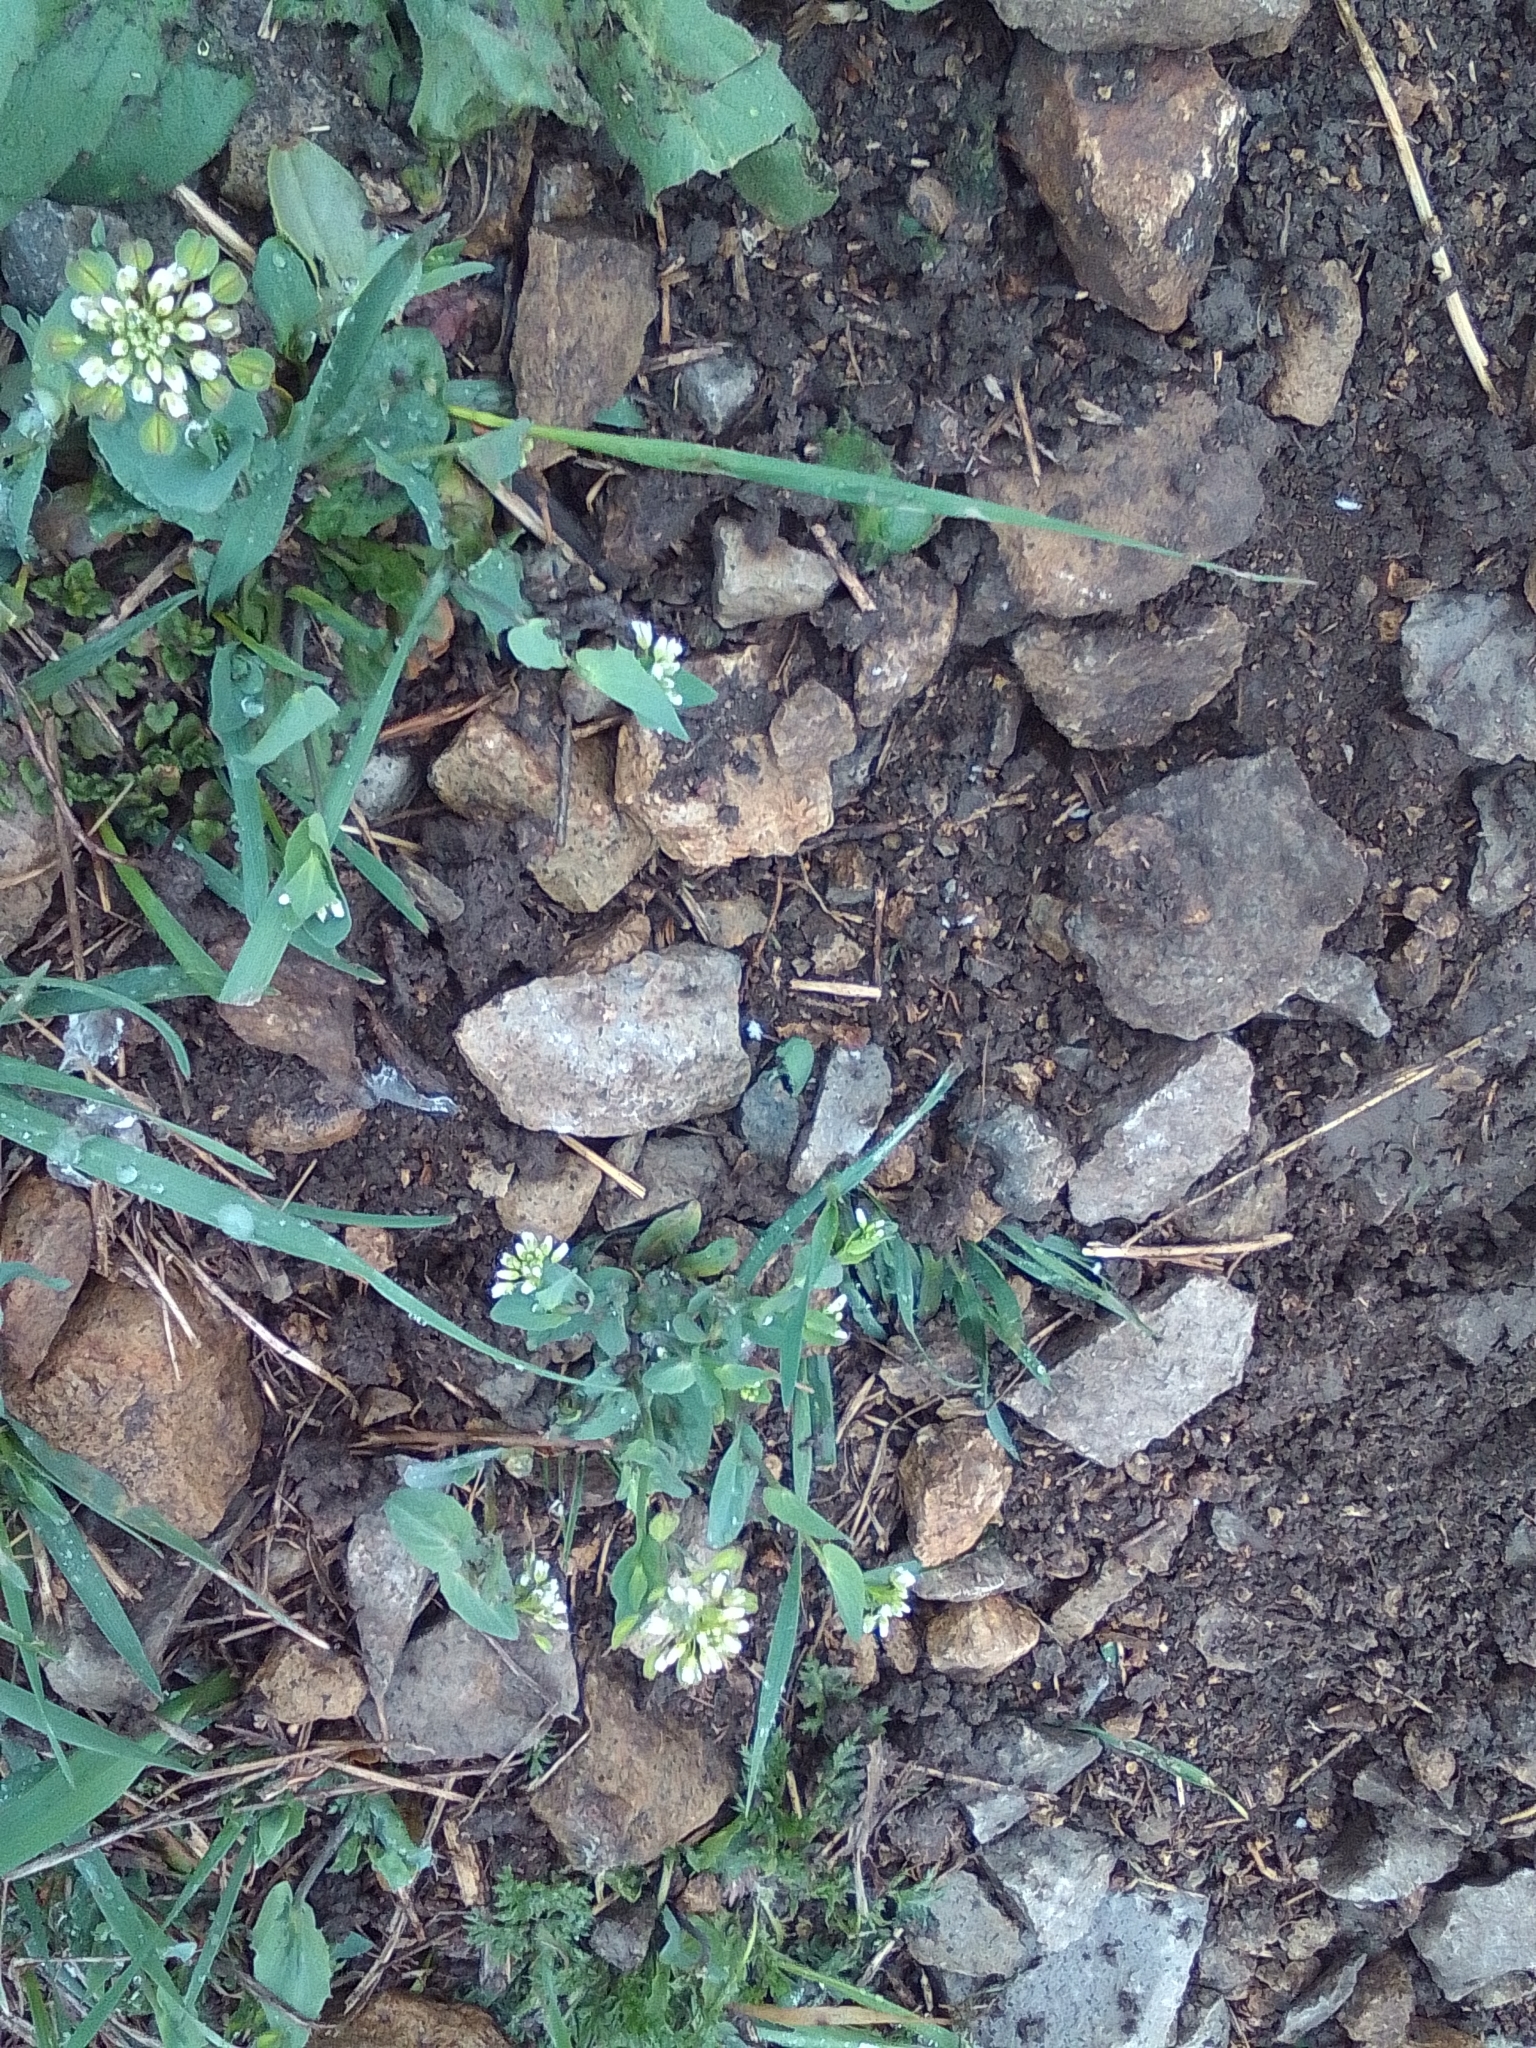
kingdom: Plantae
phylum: Tracheophyta
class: Magnoliopsida
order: Brassicales
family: Brassicaceae
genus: Noccaea
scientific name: Noccaea perfoliata
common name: Perfoliate pennycress
